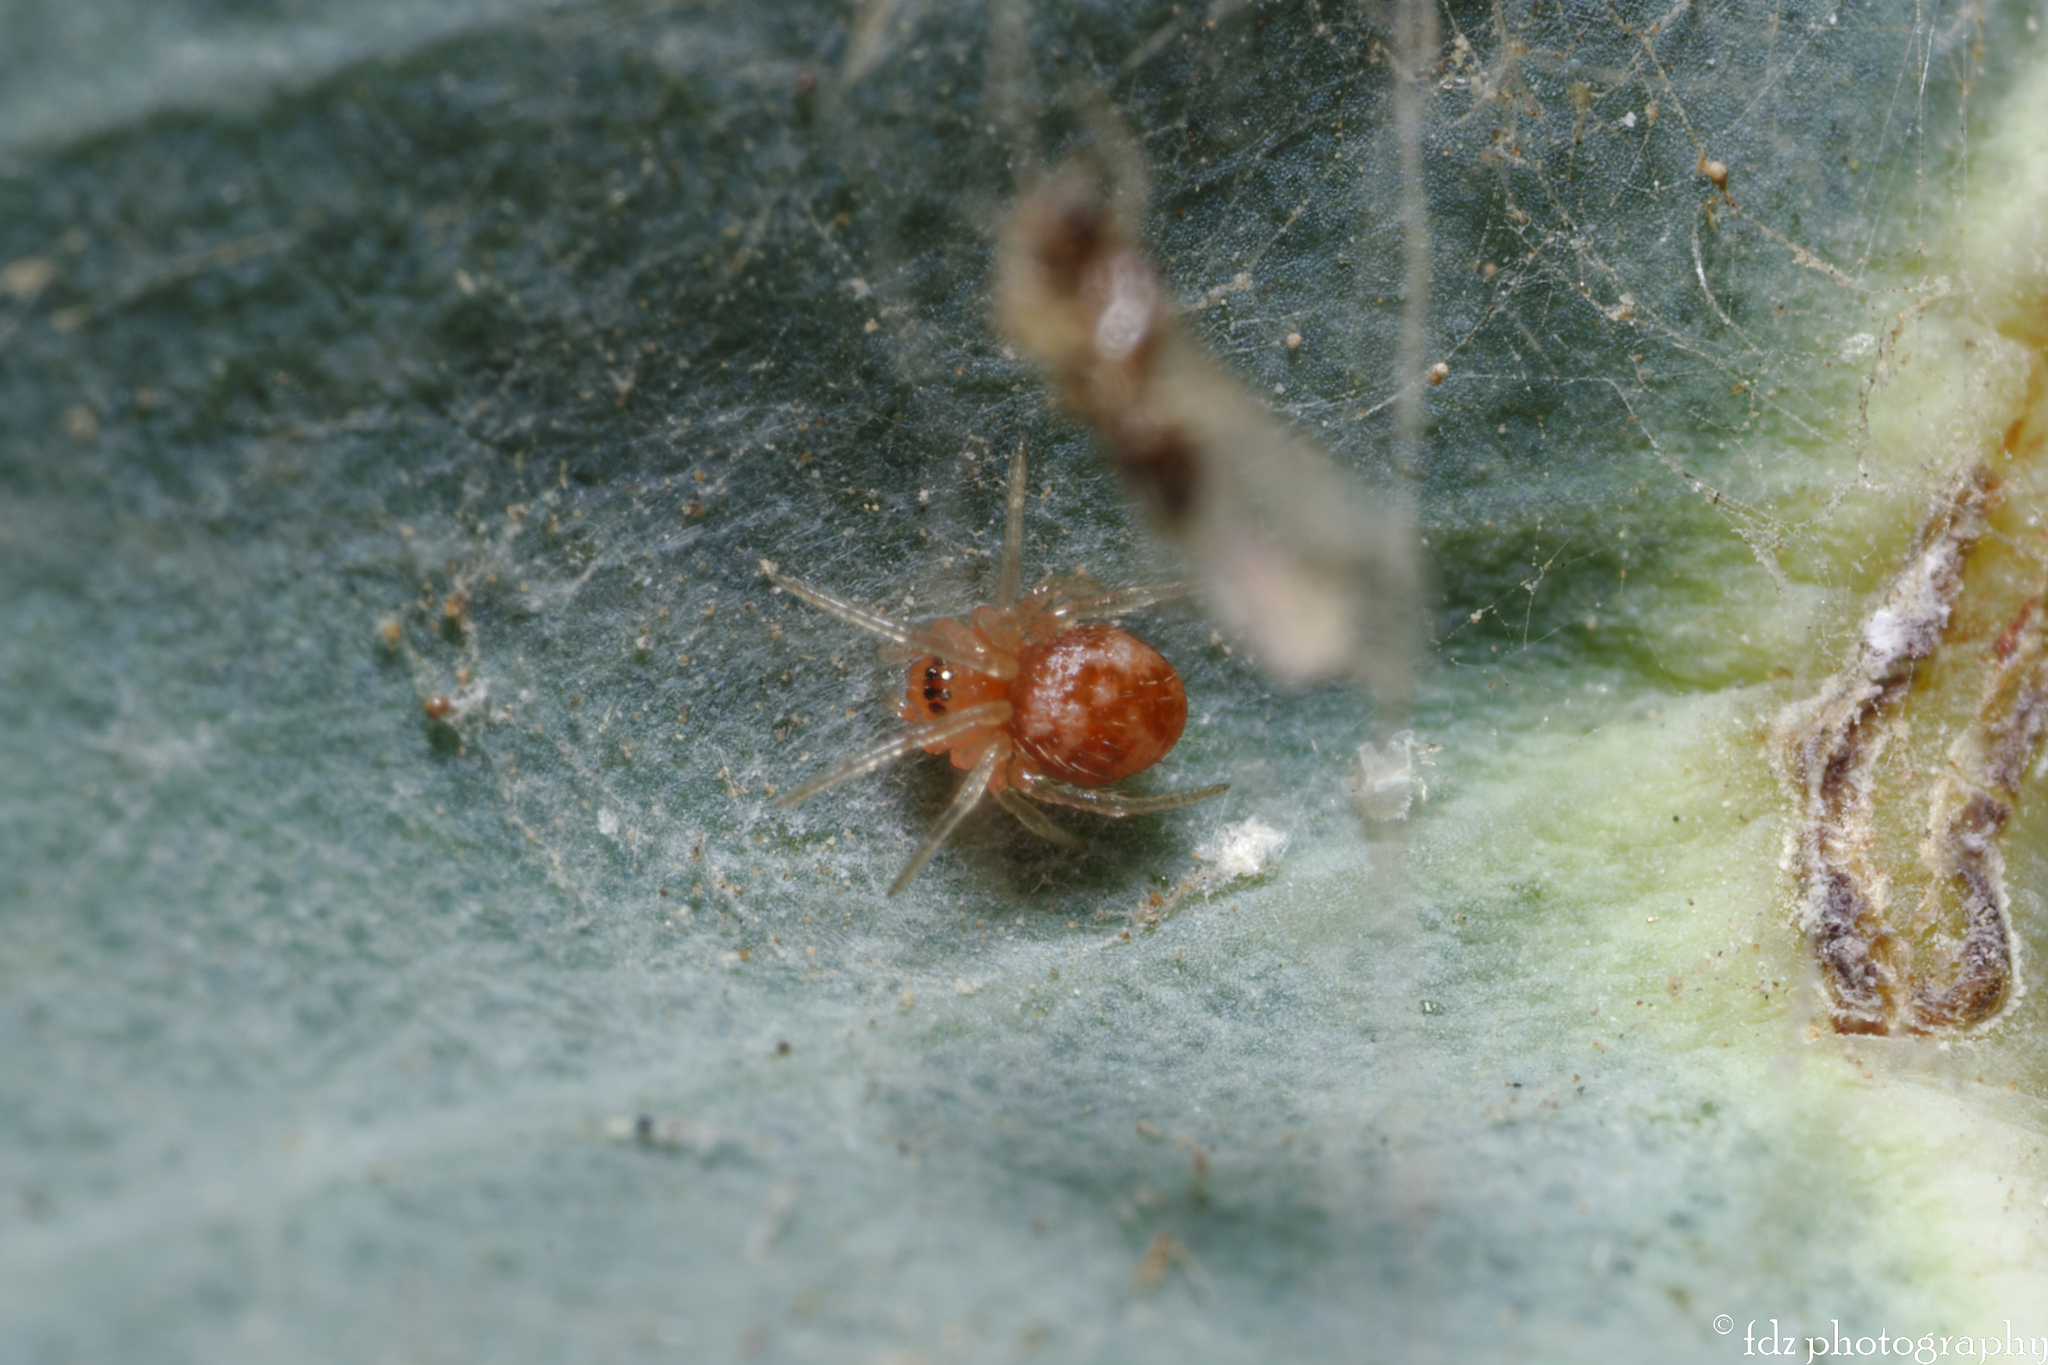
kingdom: Animalia
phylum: Arthropoda
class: Arachnida
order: Araneae
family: Theridiidae
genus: Ruborridion
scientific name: Ruborridion musivum
